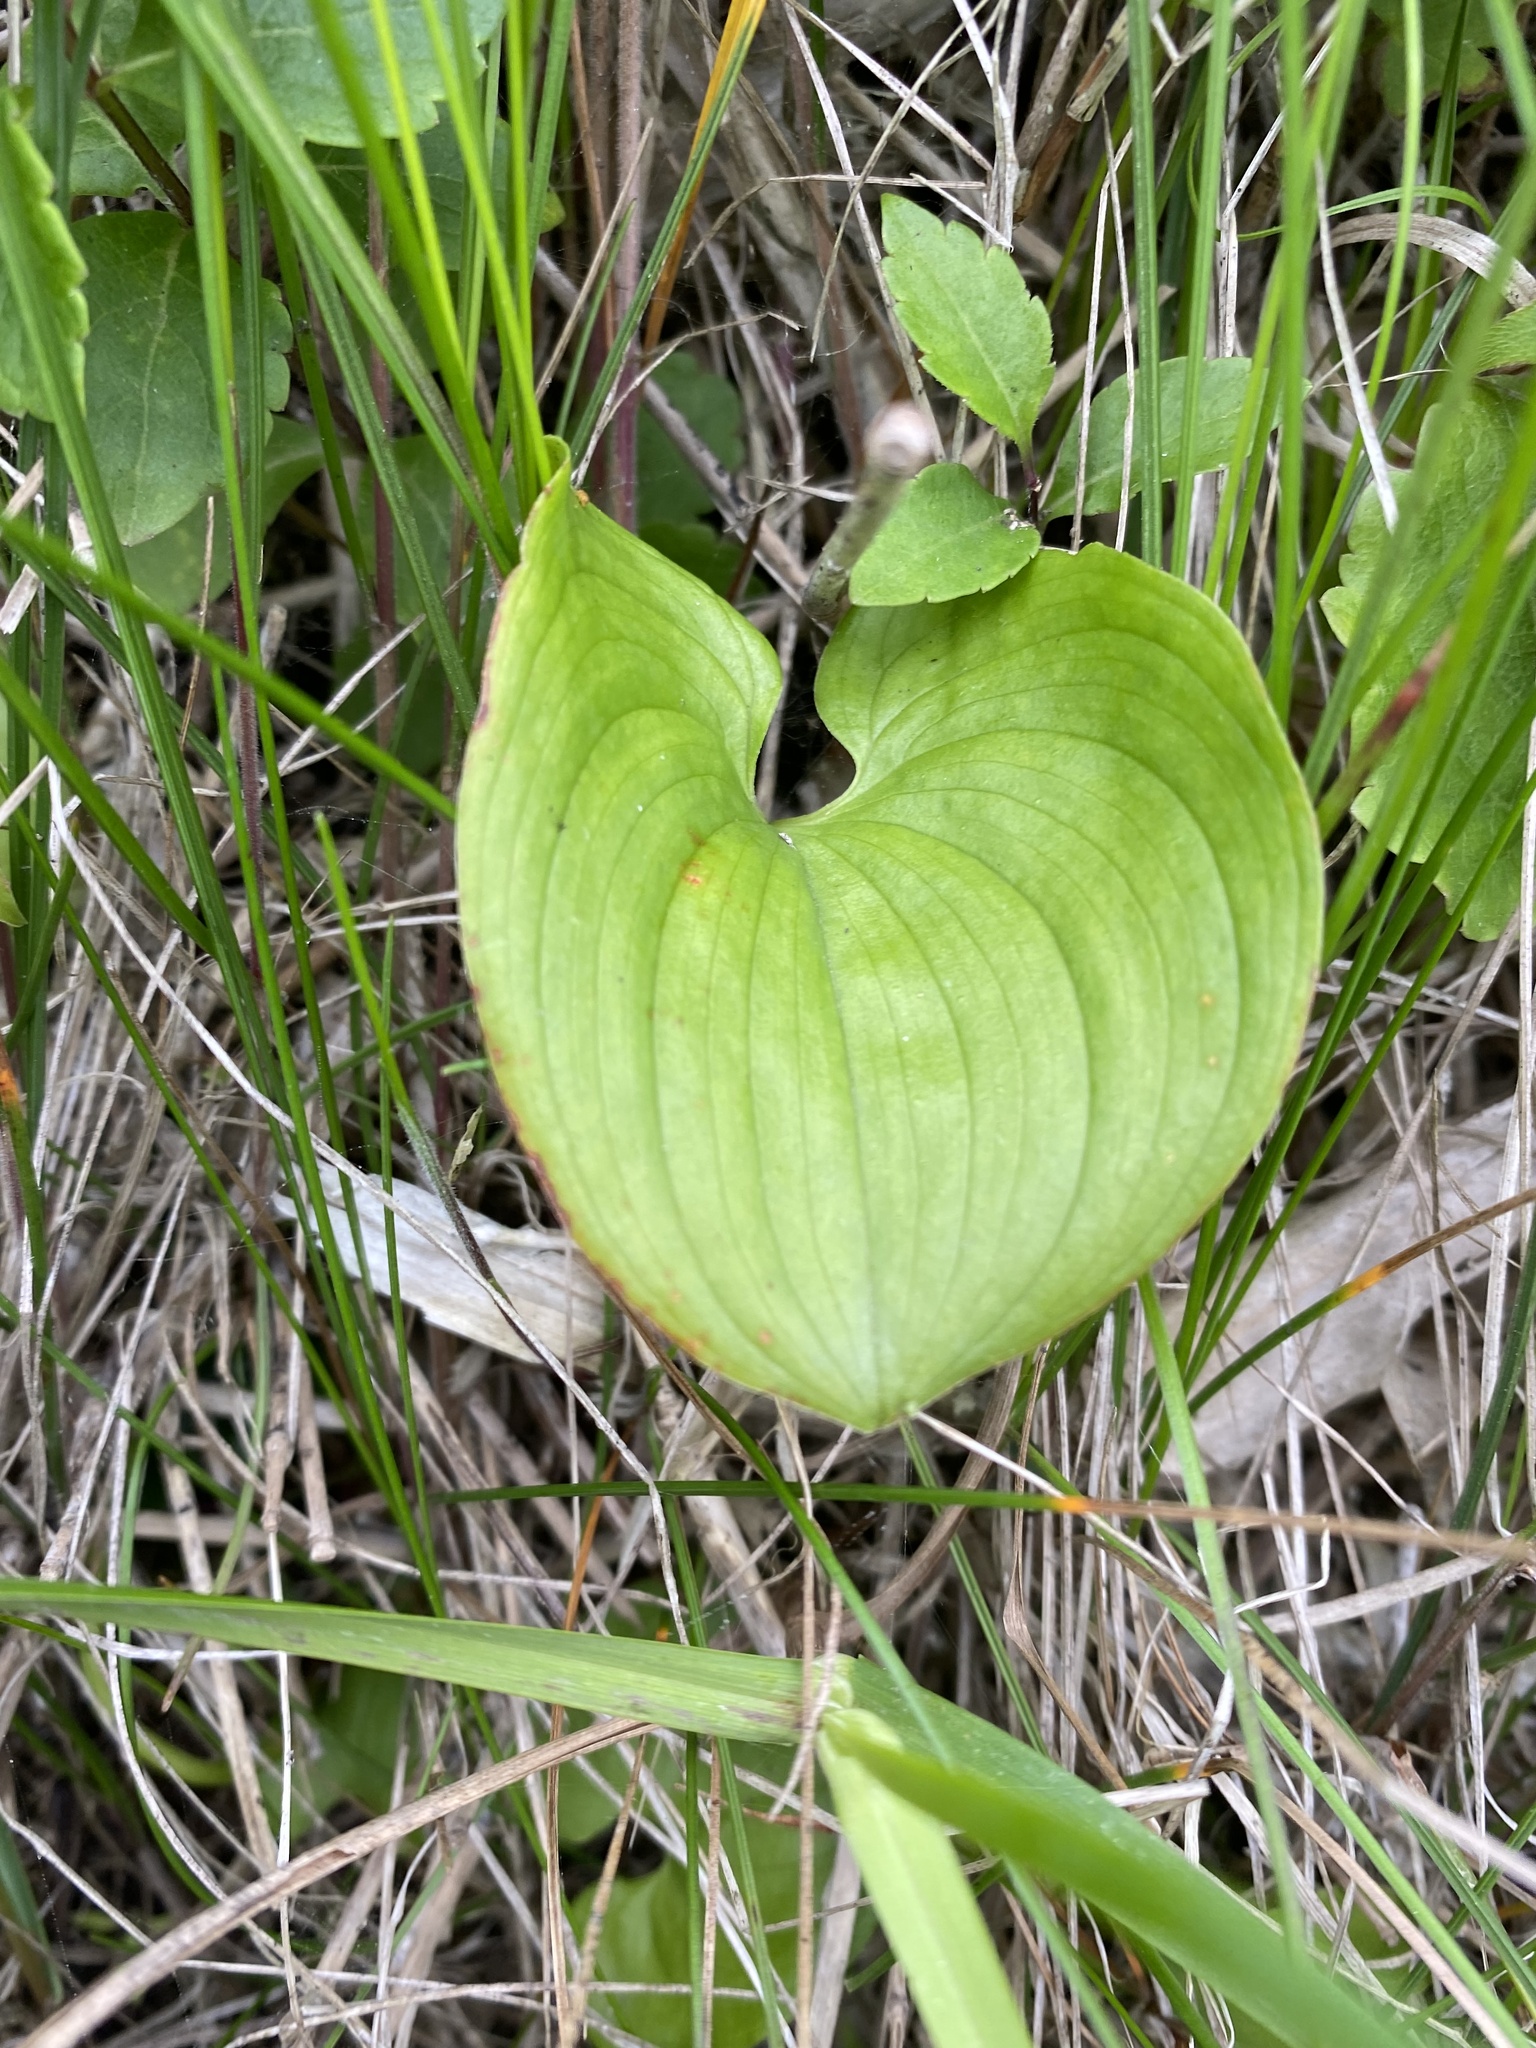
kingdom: Plantae
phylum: Tracheophyta
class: Liliopsida
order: Asparagales
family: Asparagaceae
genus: Maianthemum
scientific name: Maianthemum dilatatum
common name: False lily-of-the-valley
